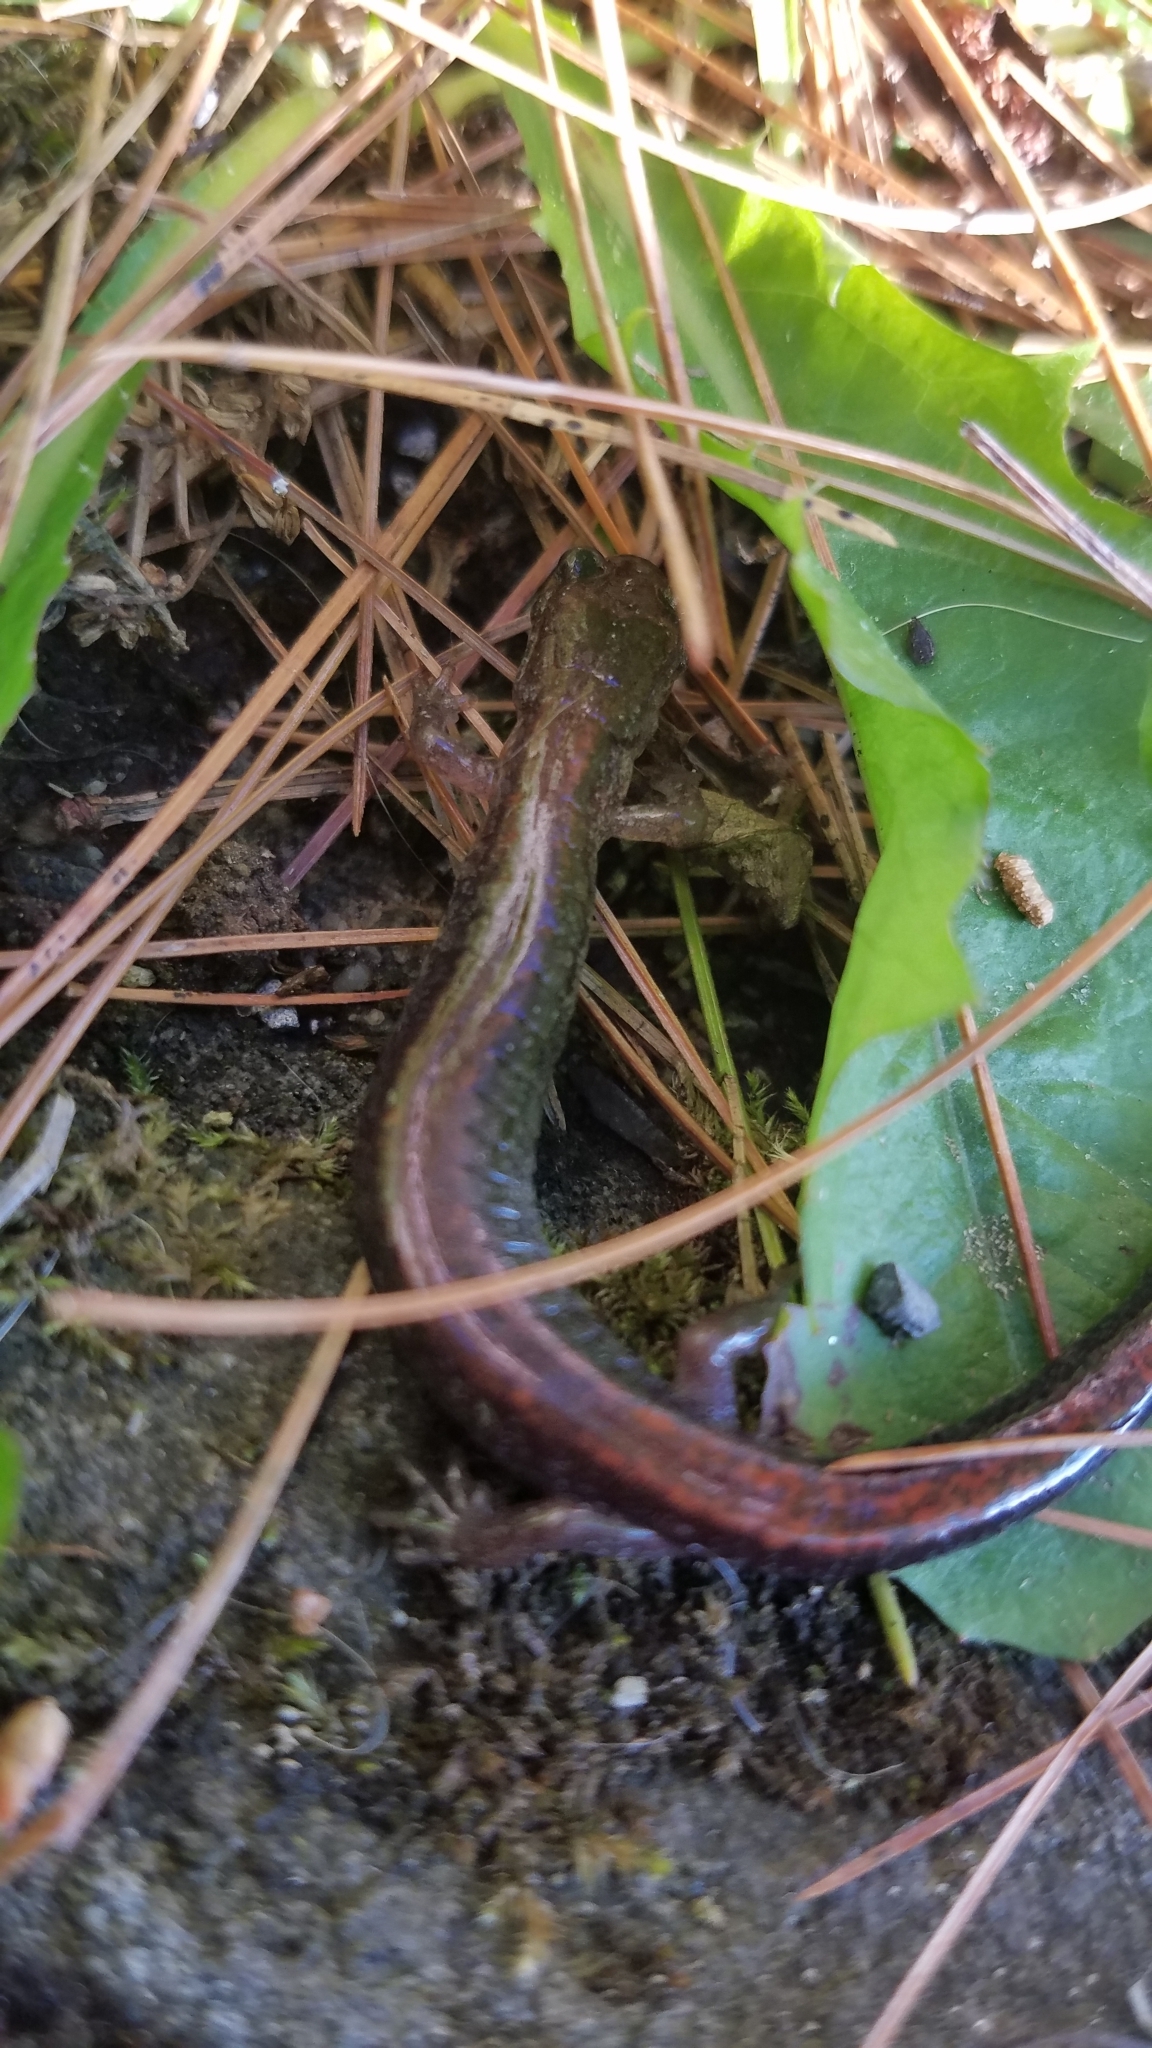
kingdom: Animalia
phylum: Chordata
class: Amphibia
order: Caudata
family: Plethodontidae
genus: Plethodon
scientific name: Plethodon cinereus
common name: Redback salamander
